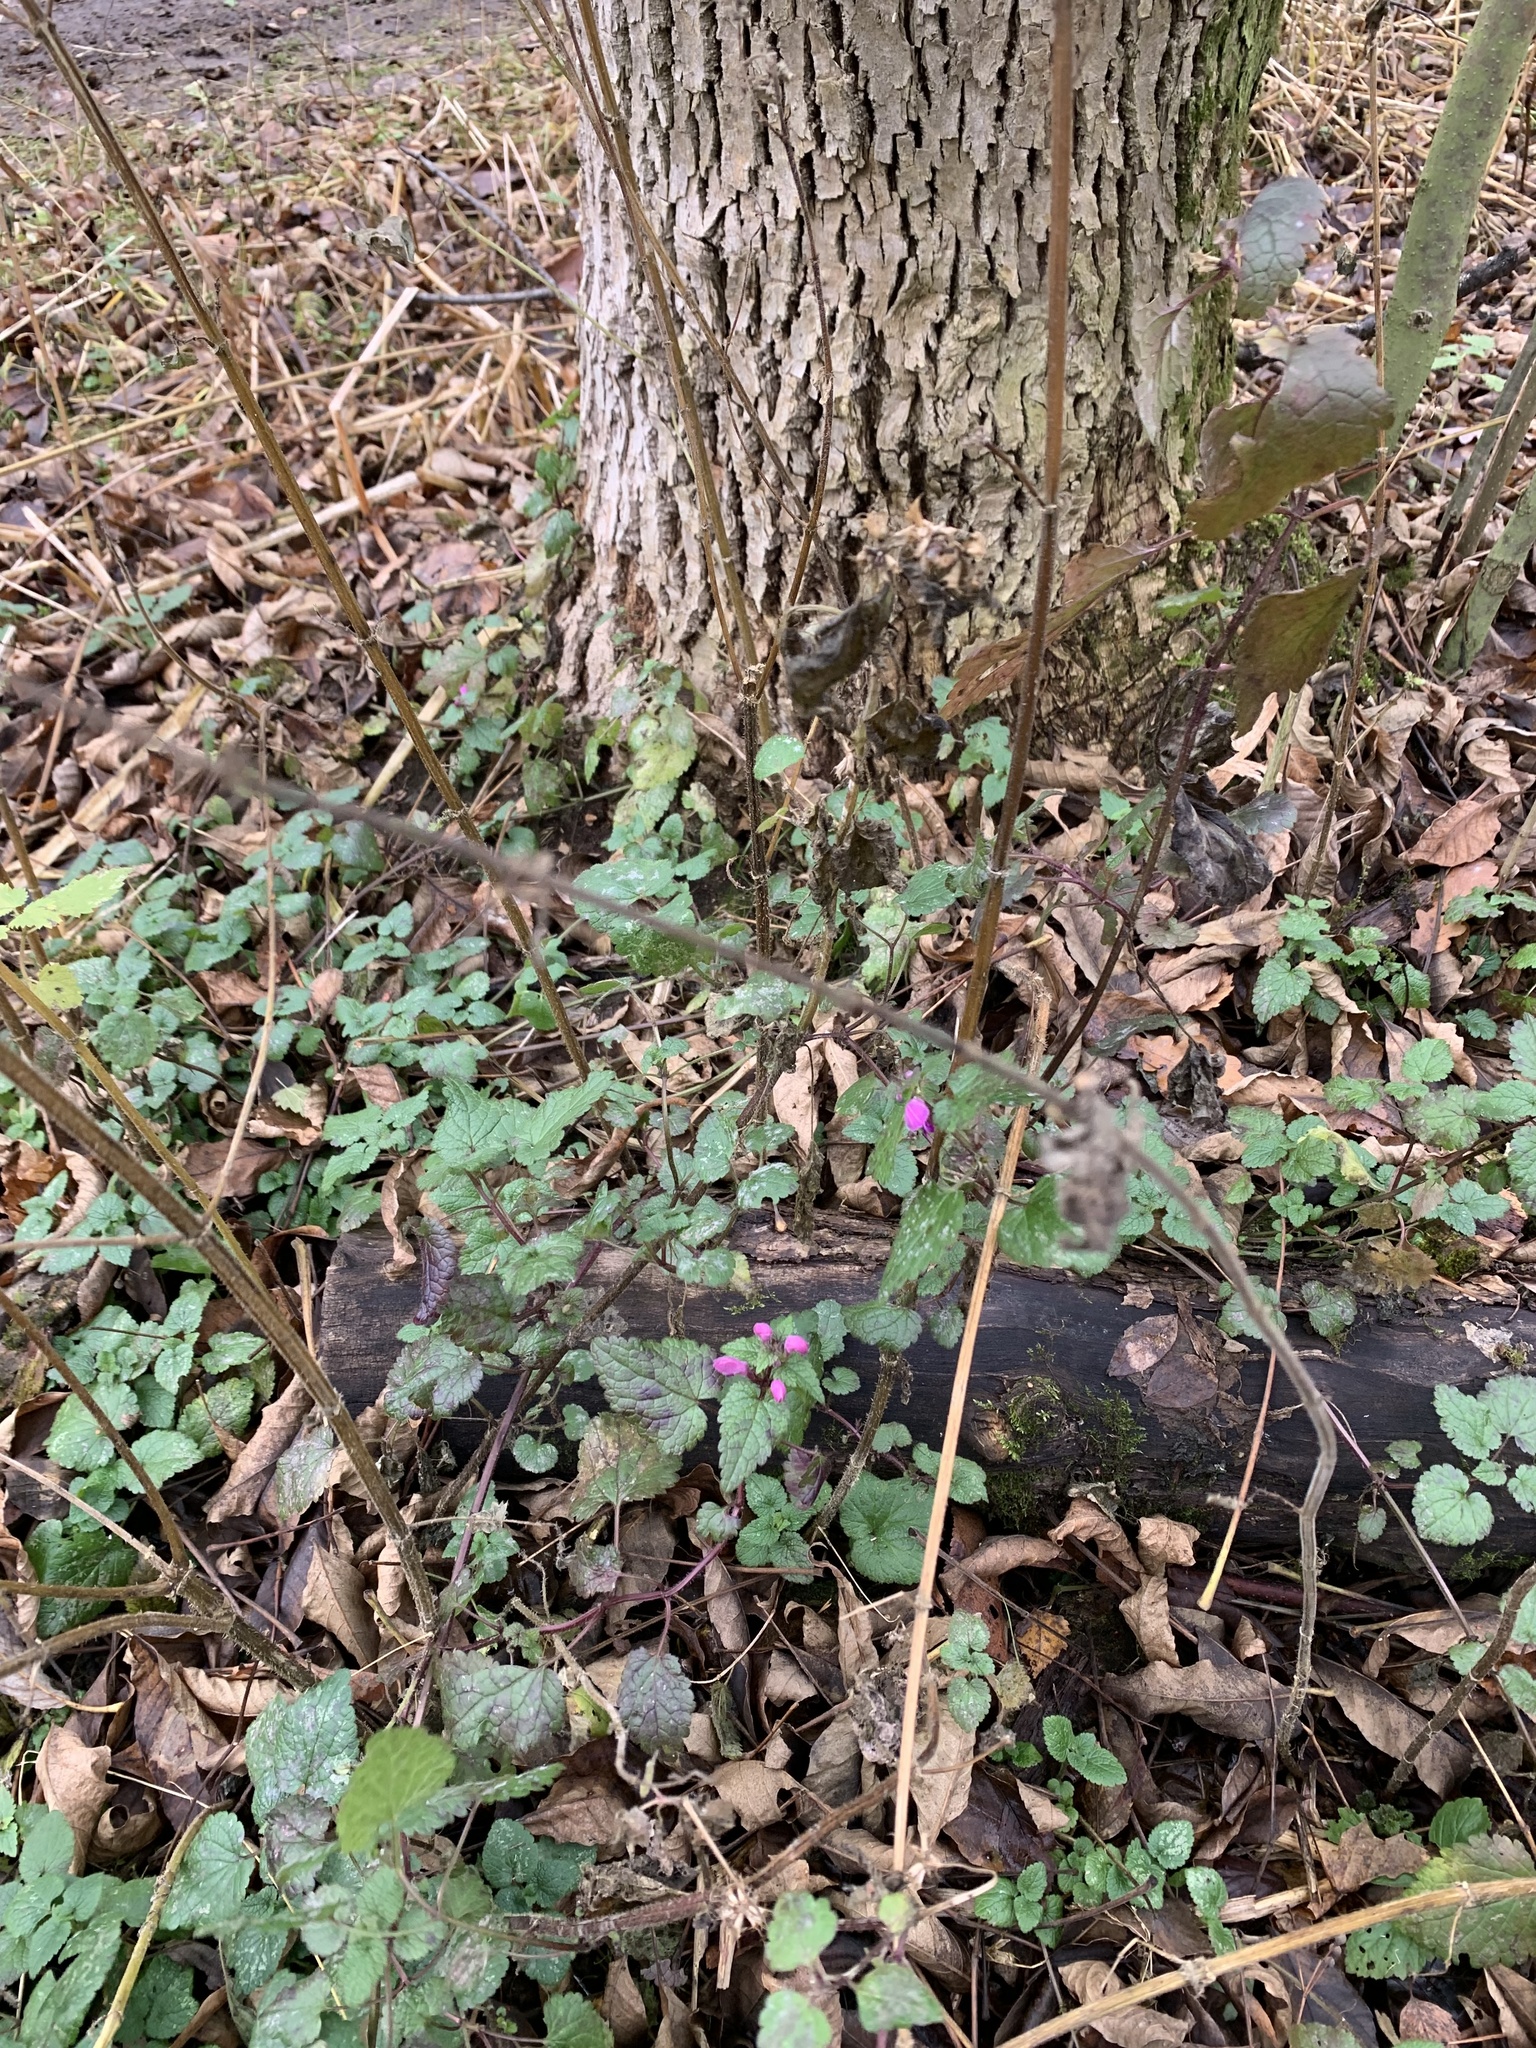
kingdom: Plantae
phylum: Tracheophyta
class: Magnoliopsida
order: Lamiales
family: Lamiaceae
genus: Lamium
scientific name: Lamium maculatum
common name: Spotted dead-nettle
